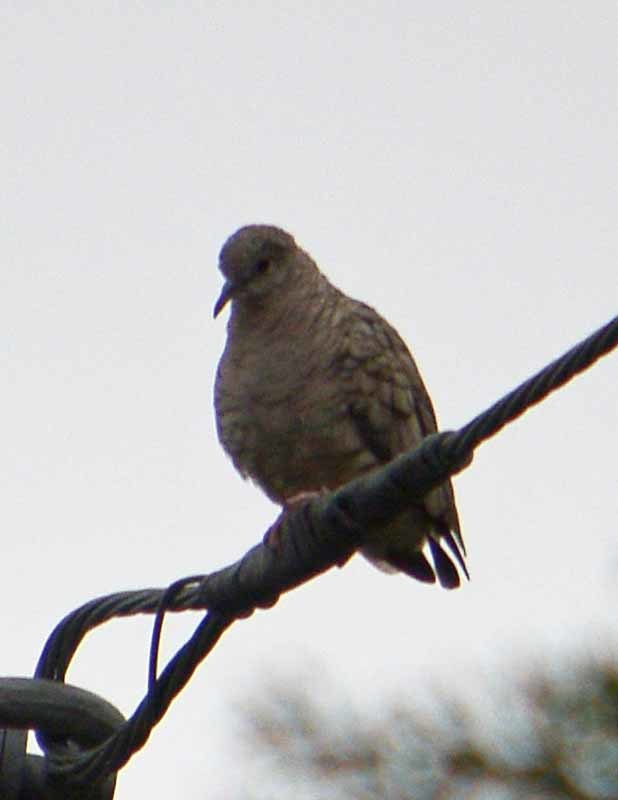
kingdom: Animalia
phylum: Chordata
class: Aves
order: Columbiformes
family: Columbidae
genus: Columbina
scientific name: Columbina inca
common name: Inca dove
